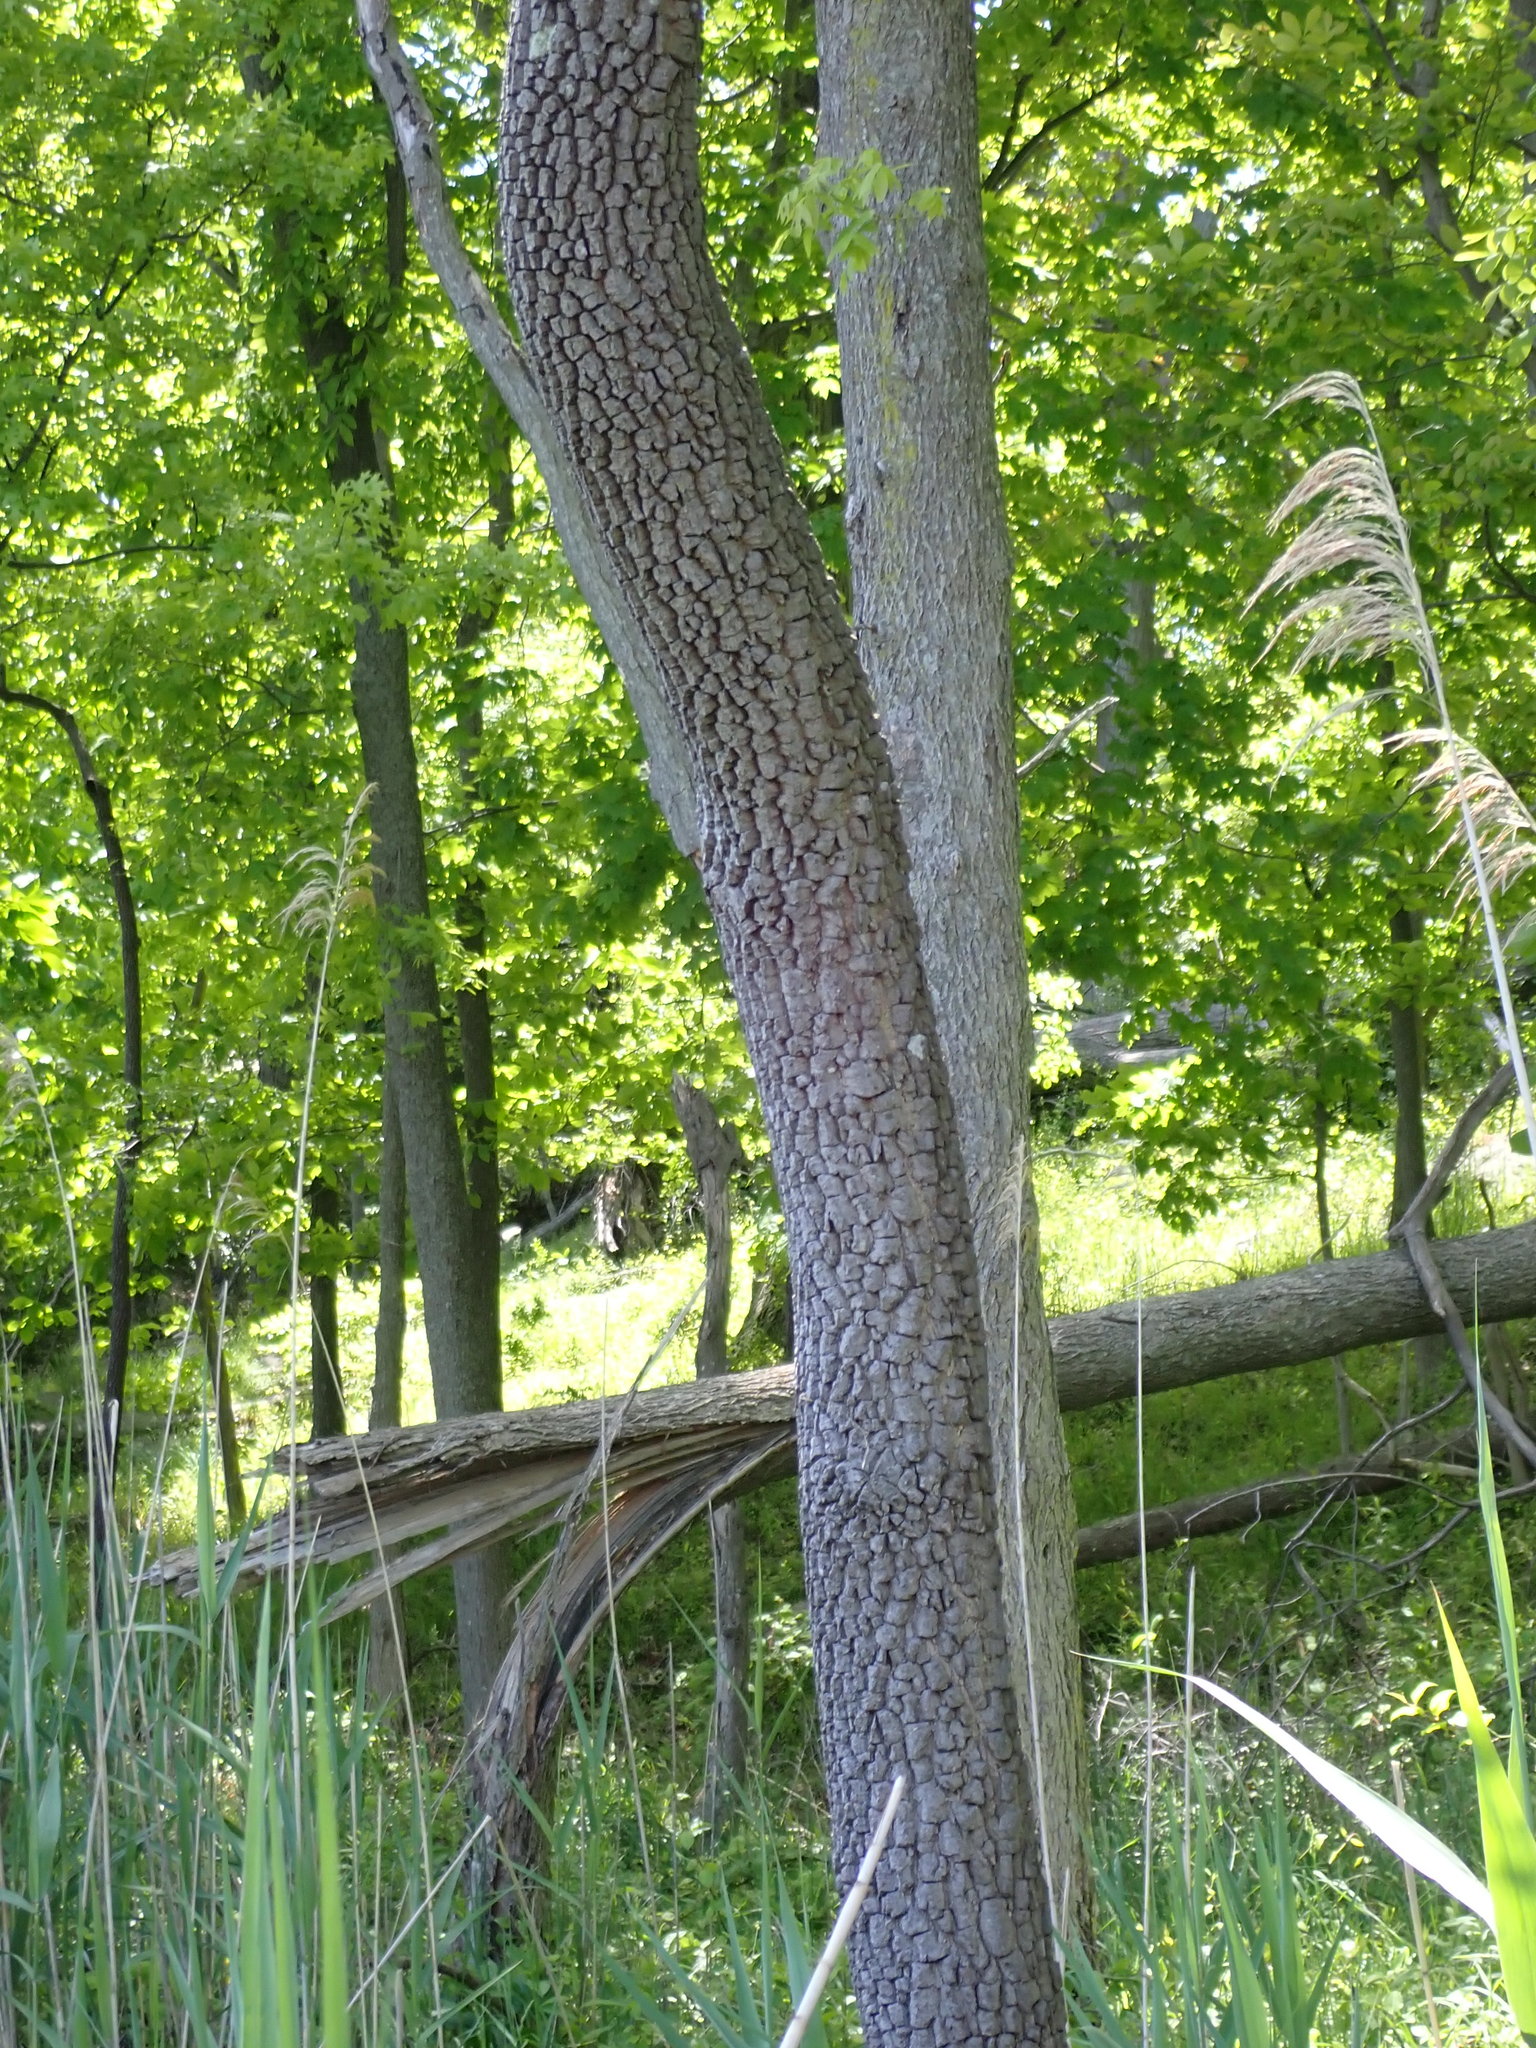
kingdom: Plantae
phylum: Tracheophyta
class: Magnoliopsida
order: Ericales
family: Ebenaceae
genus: Diospyros
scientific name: Diospyros virginiana
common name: Persimmon
